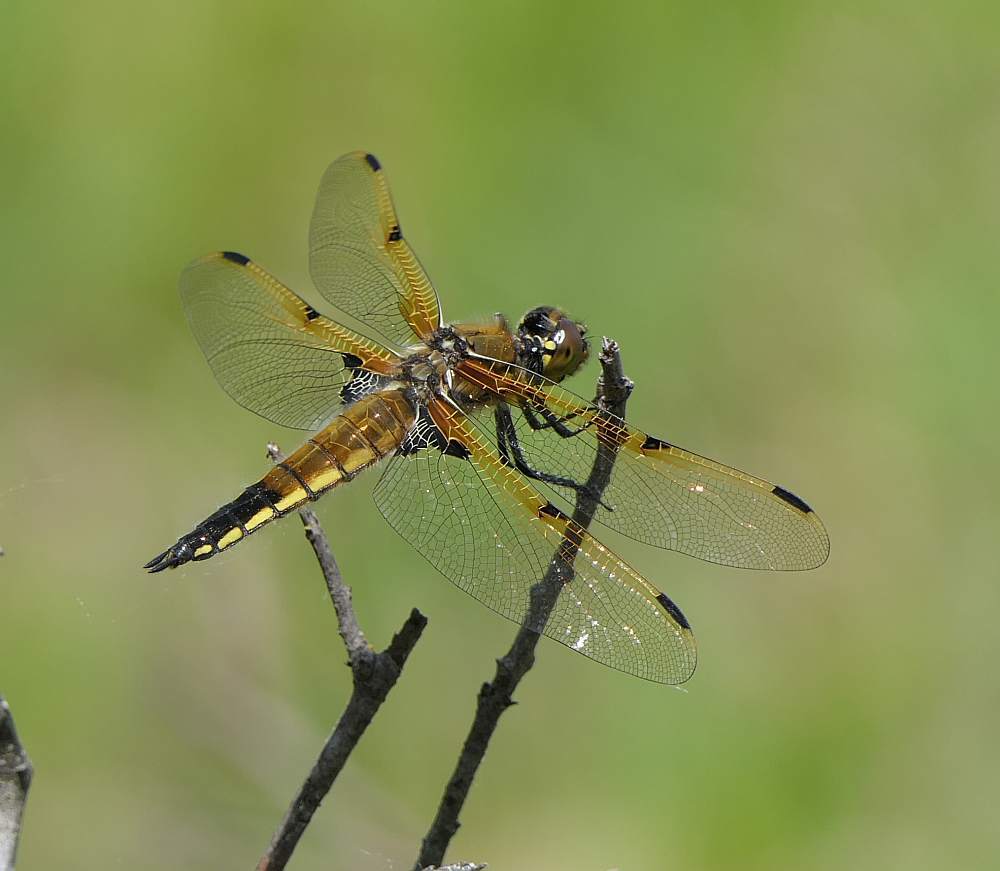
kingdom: Animalia
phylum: Arthropoda
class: Insecta
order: Odonata
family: Libellulidae
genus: Libellula
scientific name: Libellula quadrimaculata
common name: Four-spotted chaser
